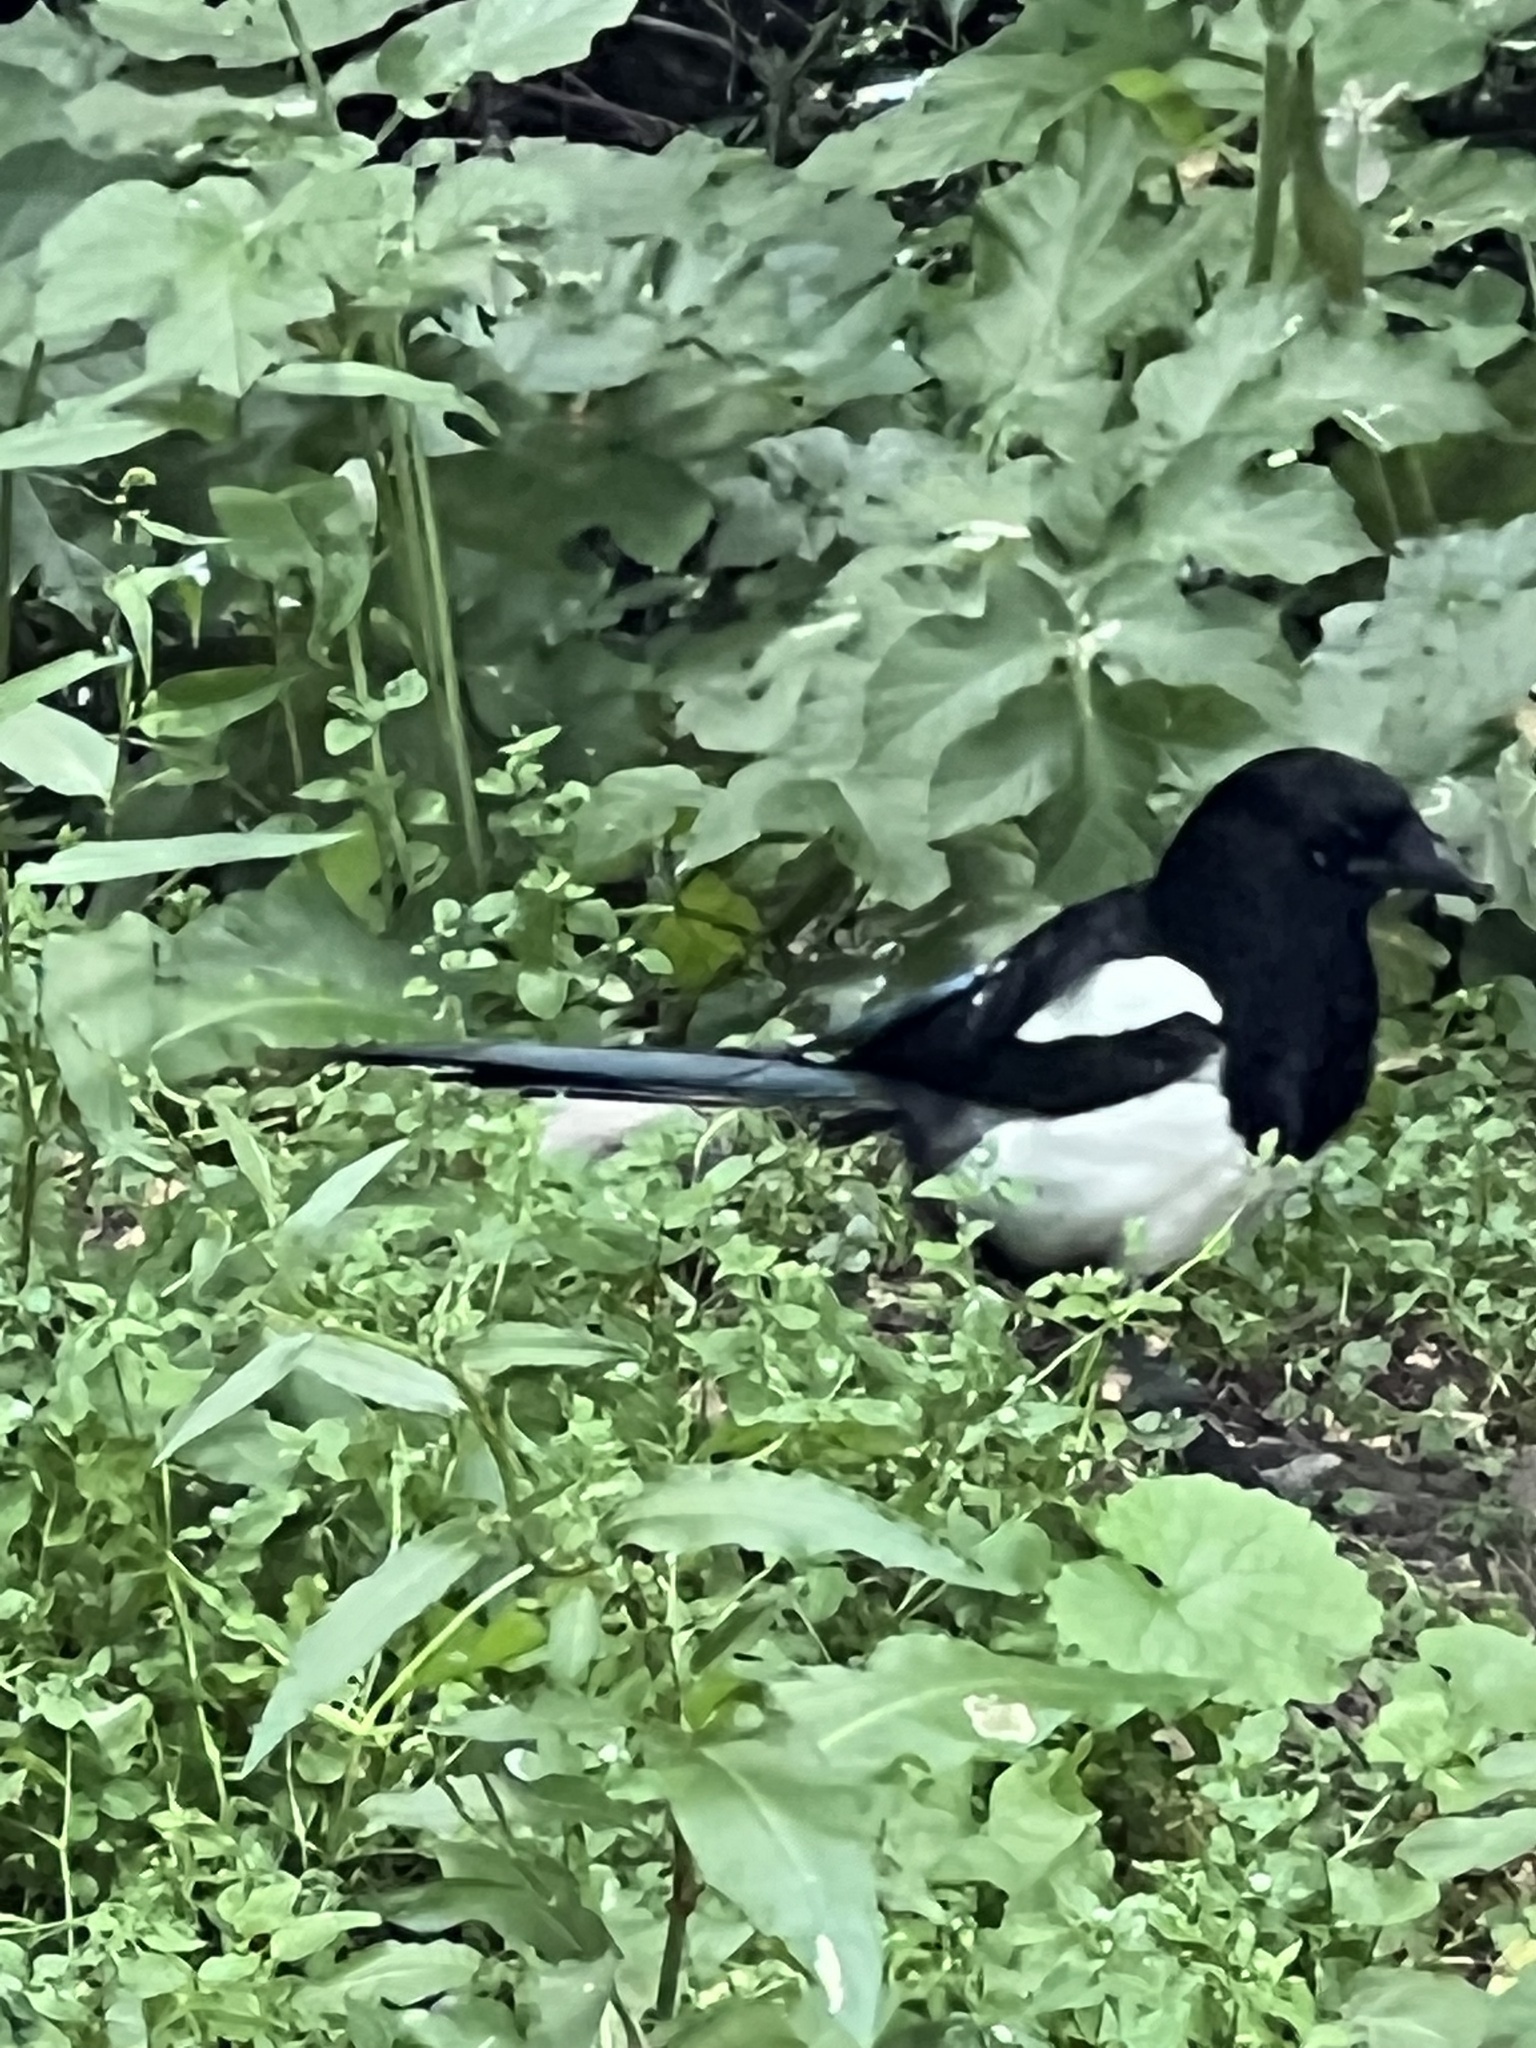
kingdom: Animalia
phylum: Chordata
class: Aves
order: Passeriformes
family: Corvidae
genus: Pica
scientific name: Pica pica
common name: Eurasian magpie
